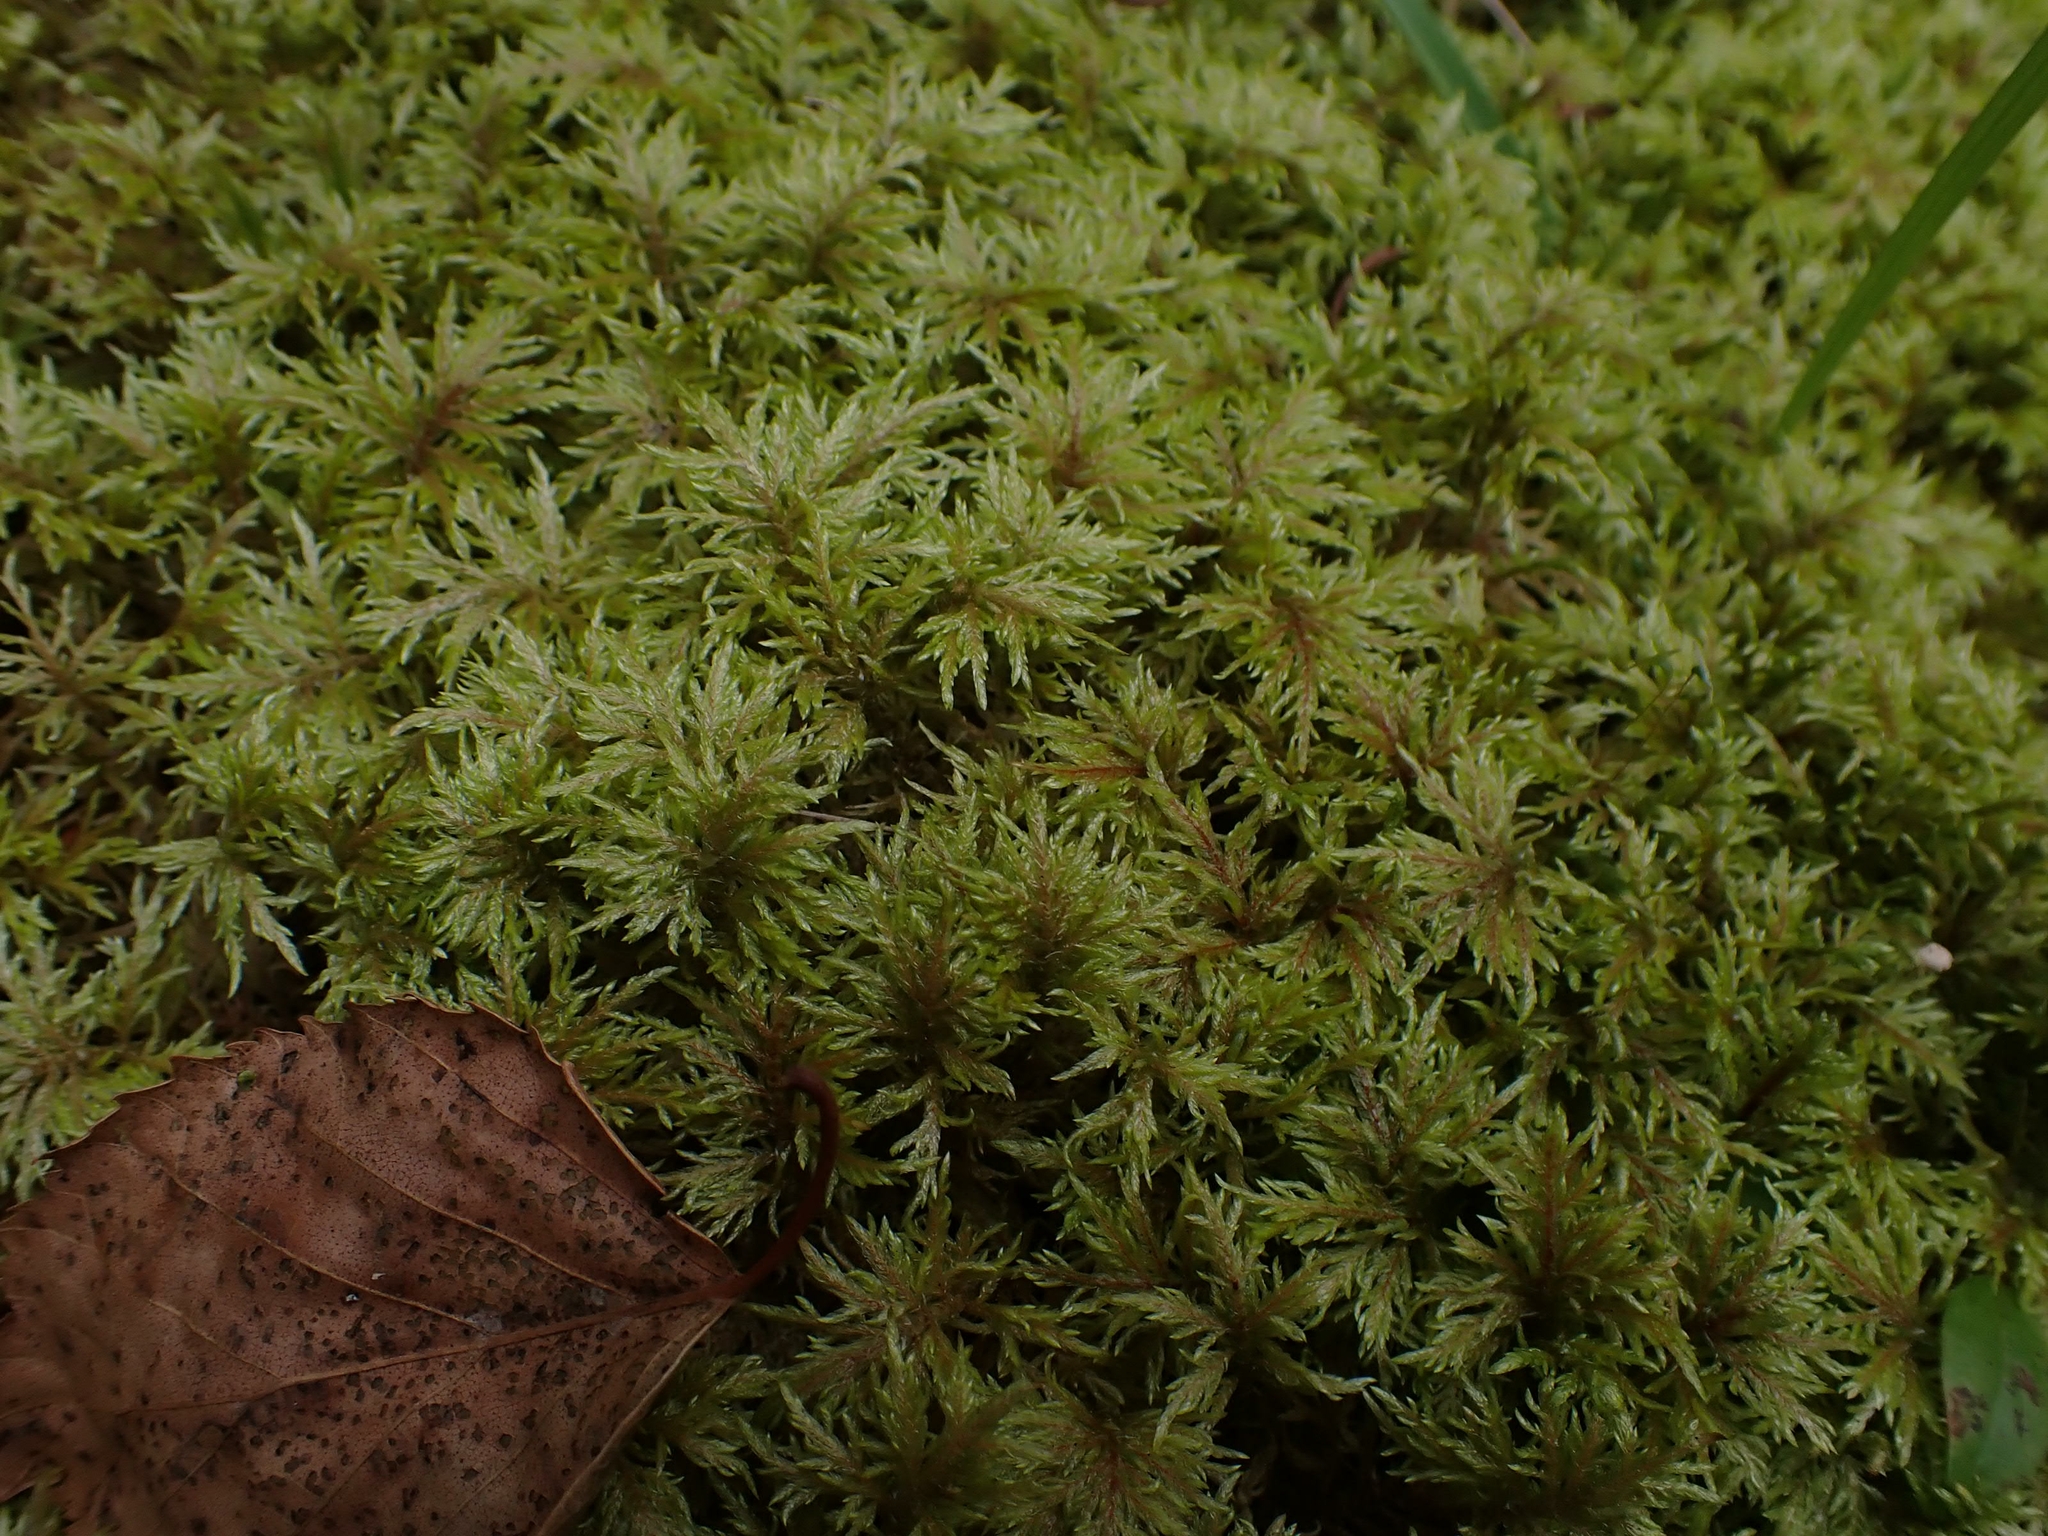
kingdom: Plantae
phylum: Bryophyta
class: Bryopsida
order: Hypnales
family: Hylocomiaceae
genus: Hylocomium
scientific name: Hylocomium splendens
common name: Stairstep moss
